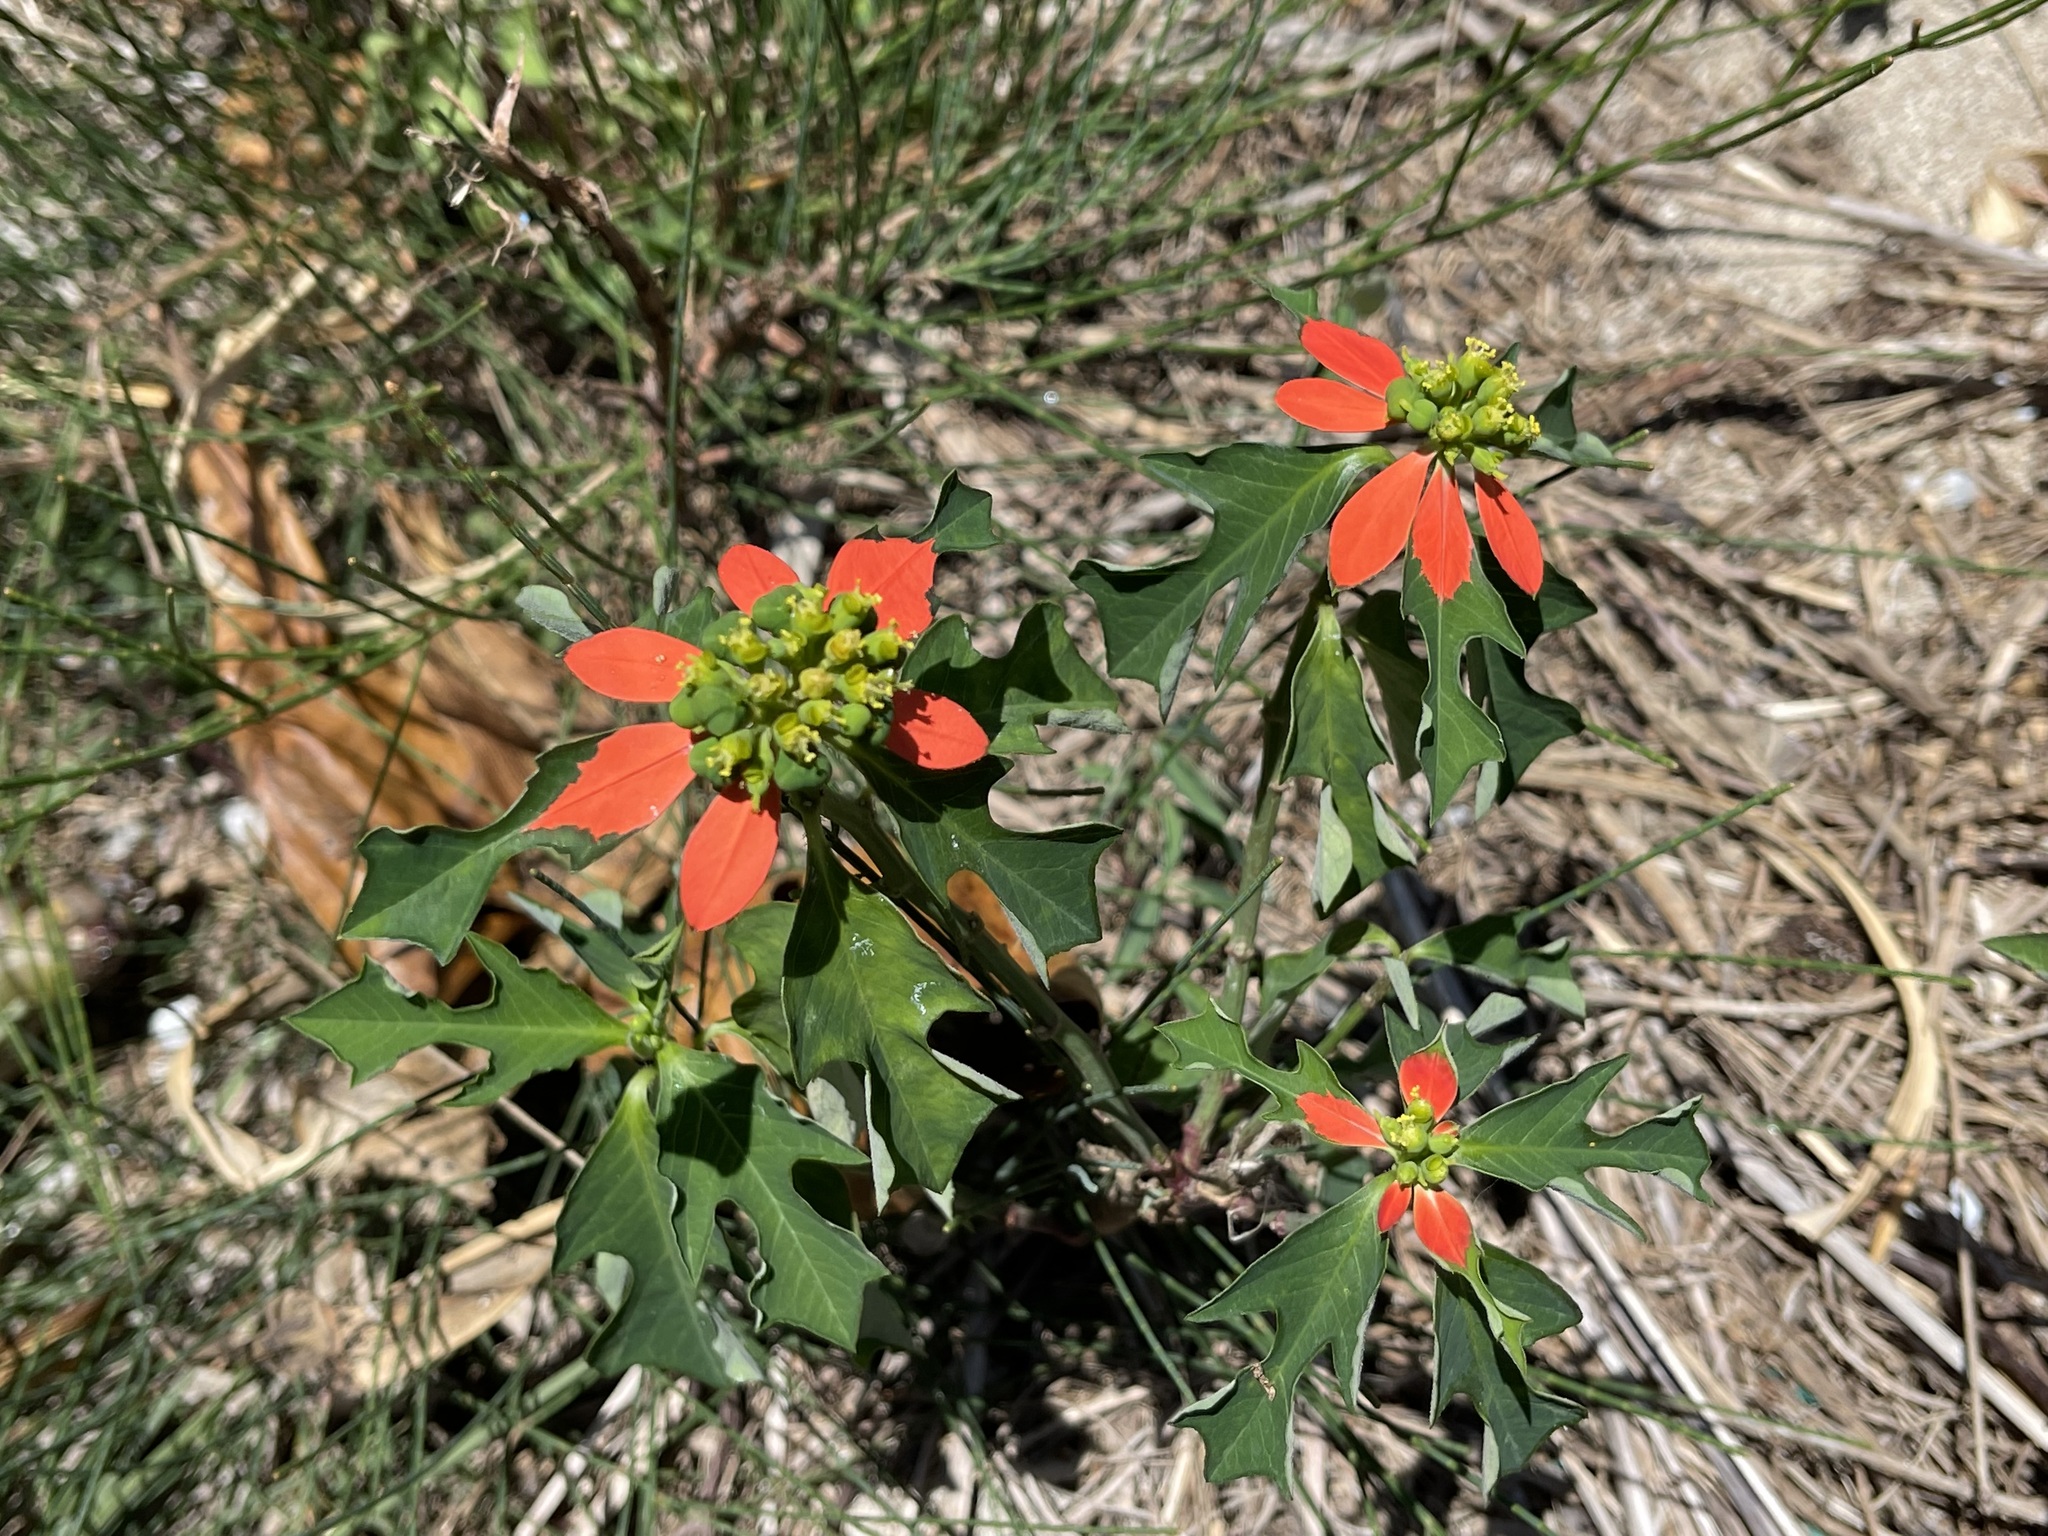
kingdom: Plantae
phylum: Tracheophyta
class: Magnoliopsida
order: Malpighiales
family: Euphorbiaceae
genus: Euphorbia
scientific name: Euphorbia heterophylla
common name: Mexican fireplant
